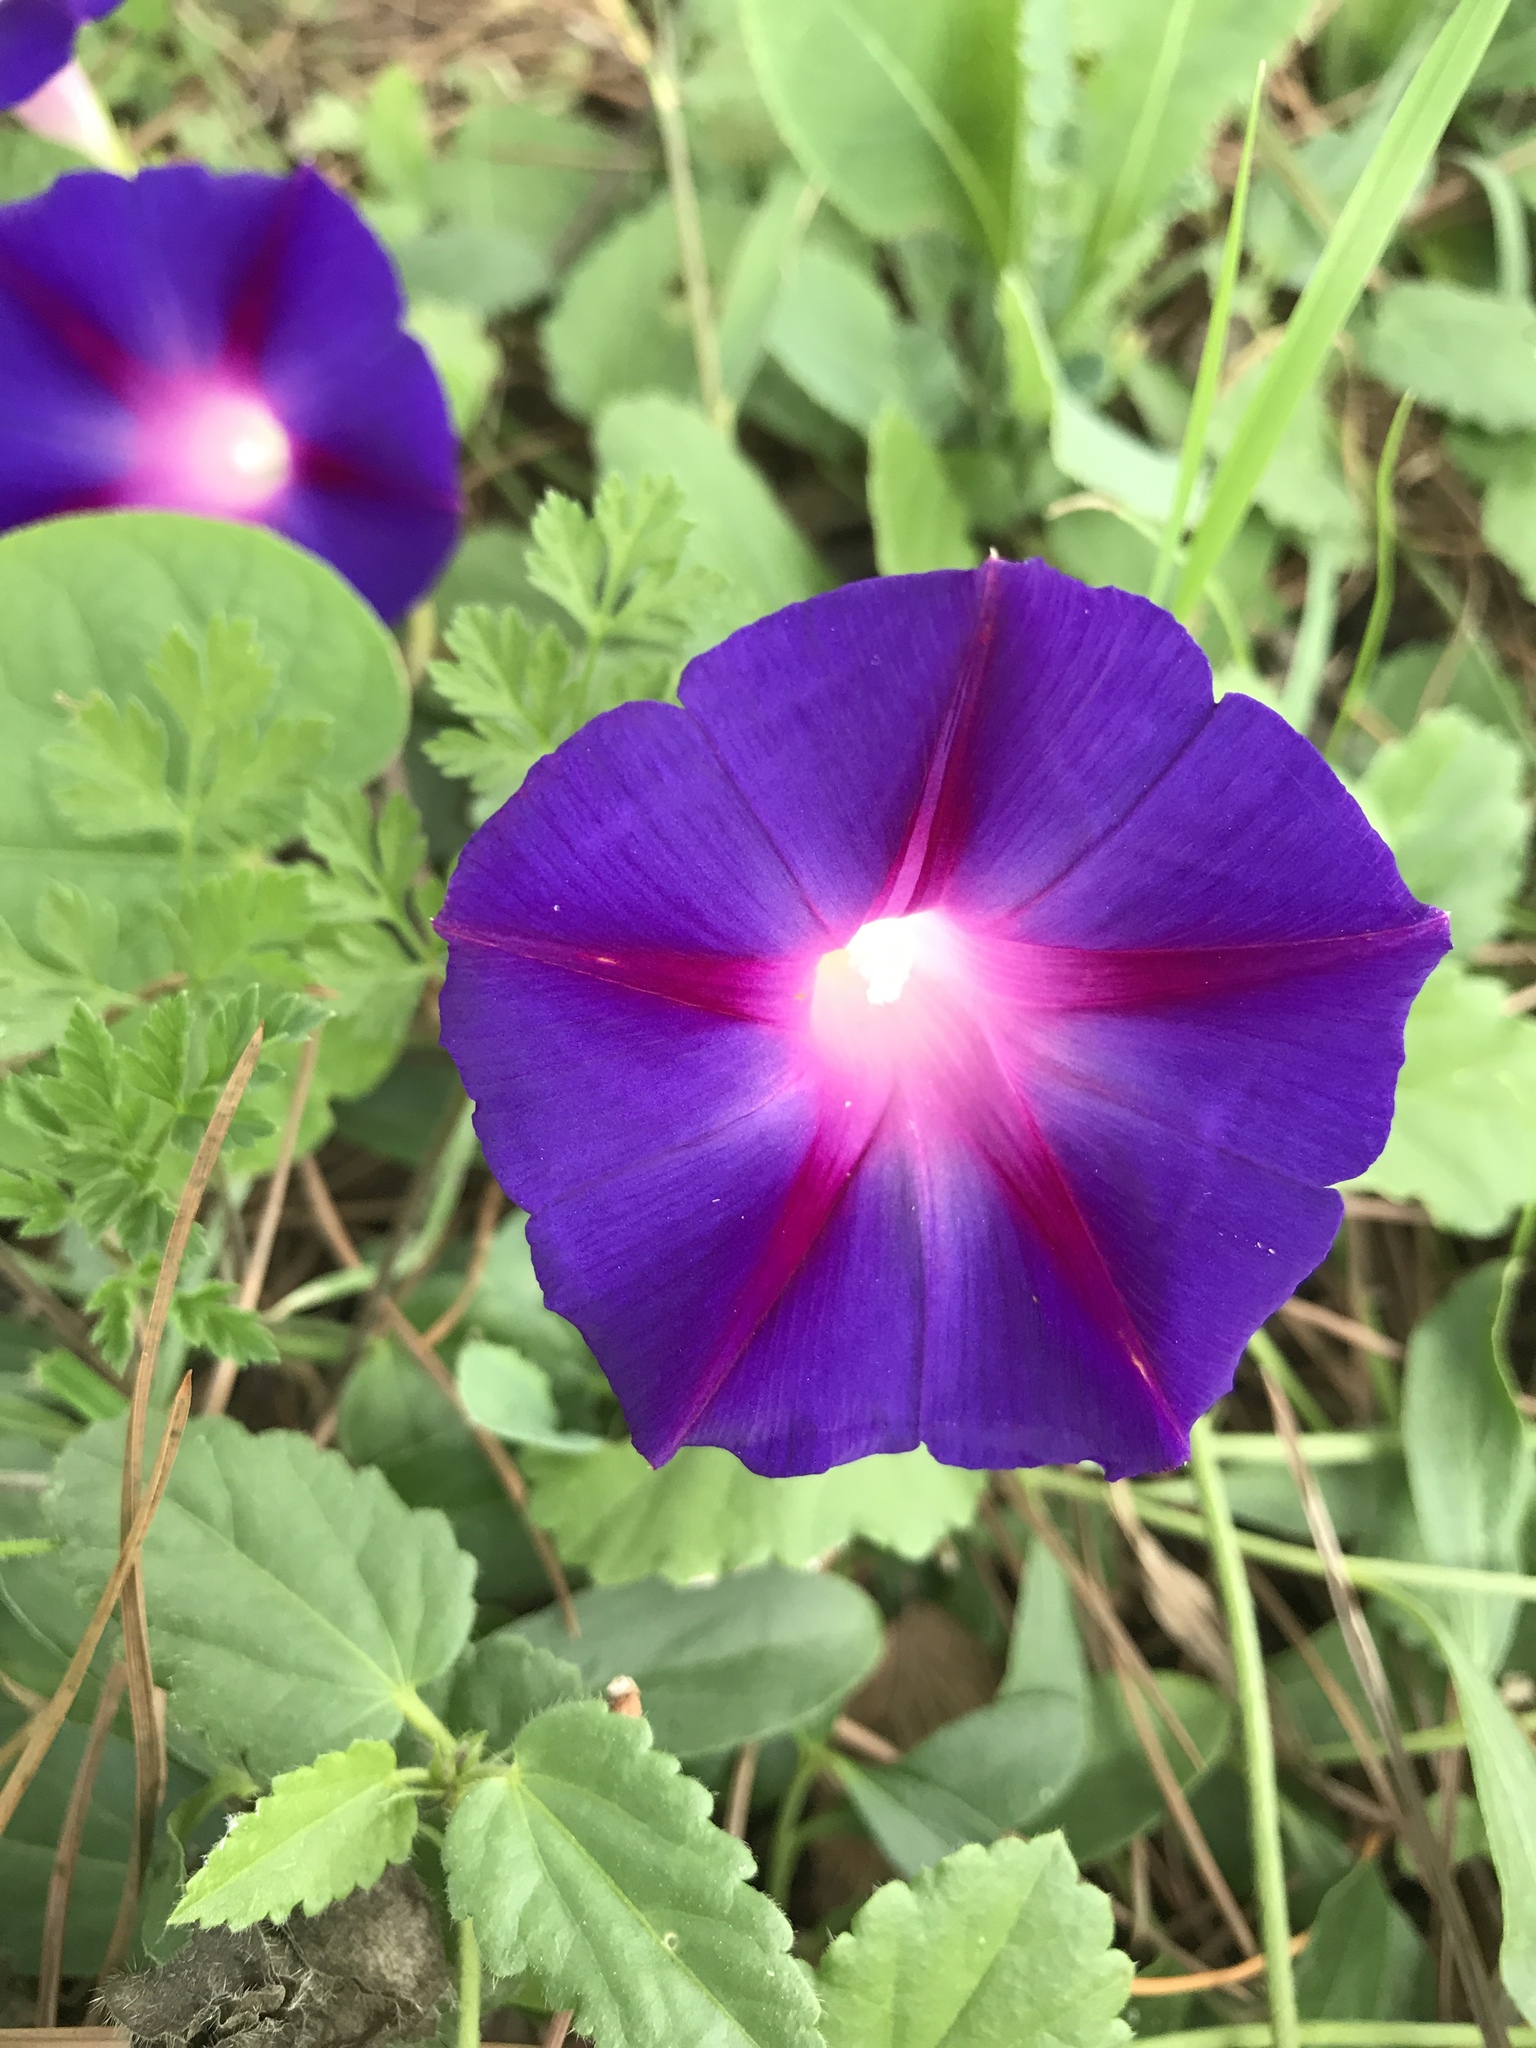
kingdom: Plantae
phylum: Tracheophyta
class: Magnoliopsida
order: Solanales
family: Convolvulaceae
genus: Ipomoea
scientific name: Ipomoea purpurea
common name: Common morning-glory
